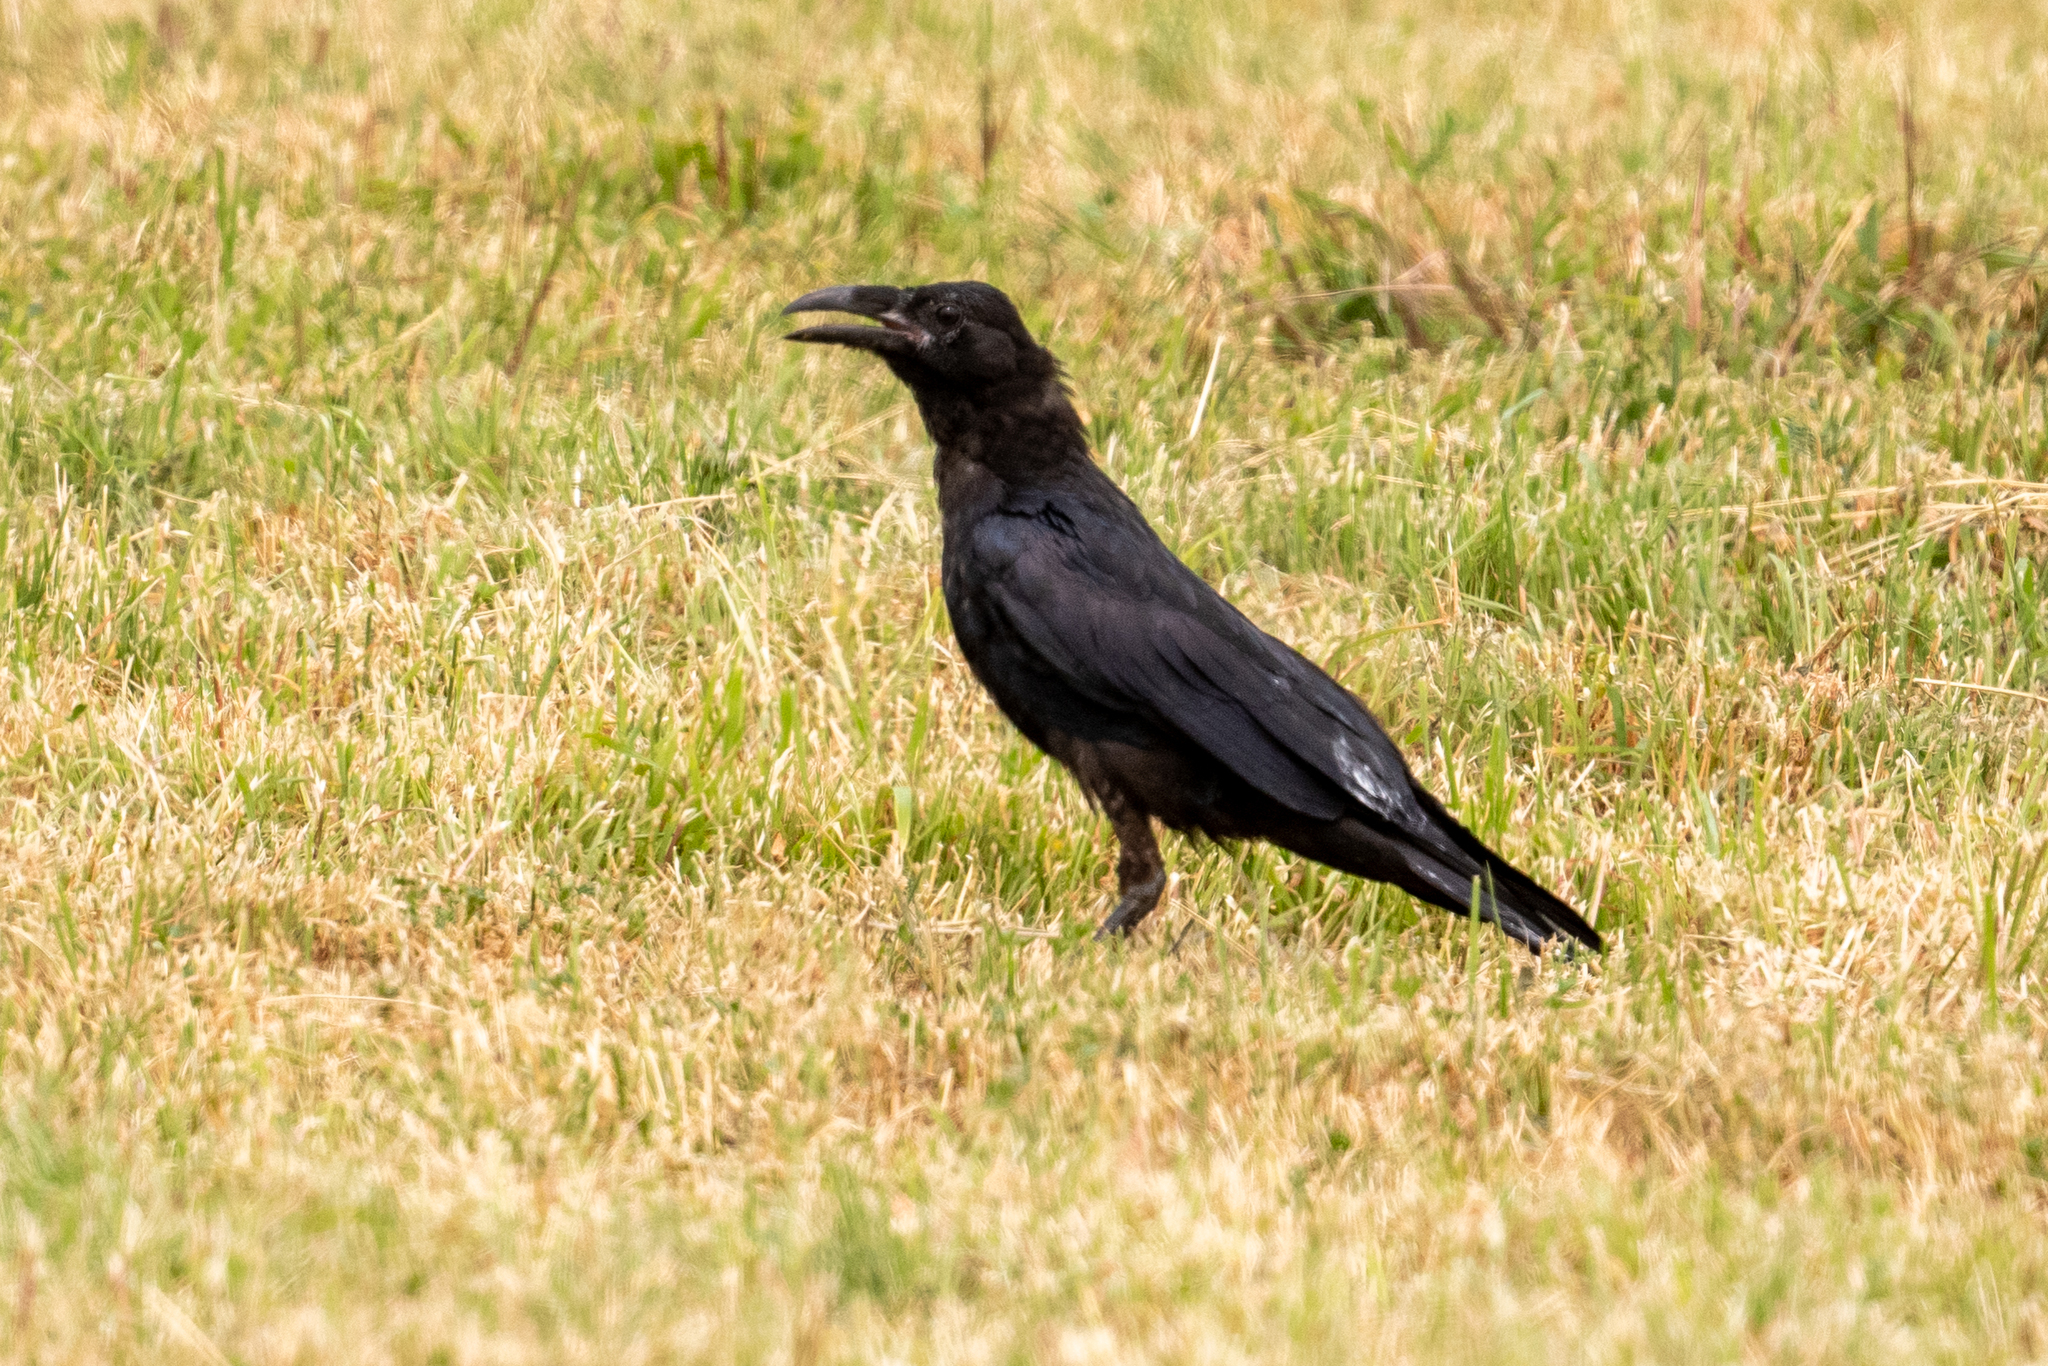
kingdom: Animalia
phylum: Chordata
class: Aves
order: Passeriformes
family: Corvidae
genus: Corvus
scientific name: Corvus corax
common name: Common raven
